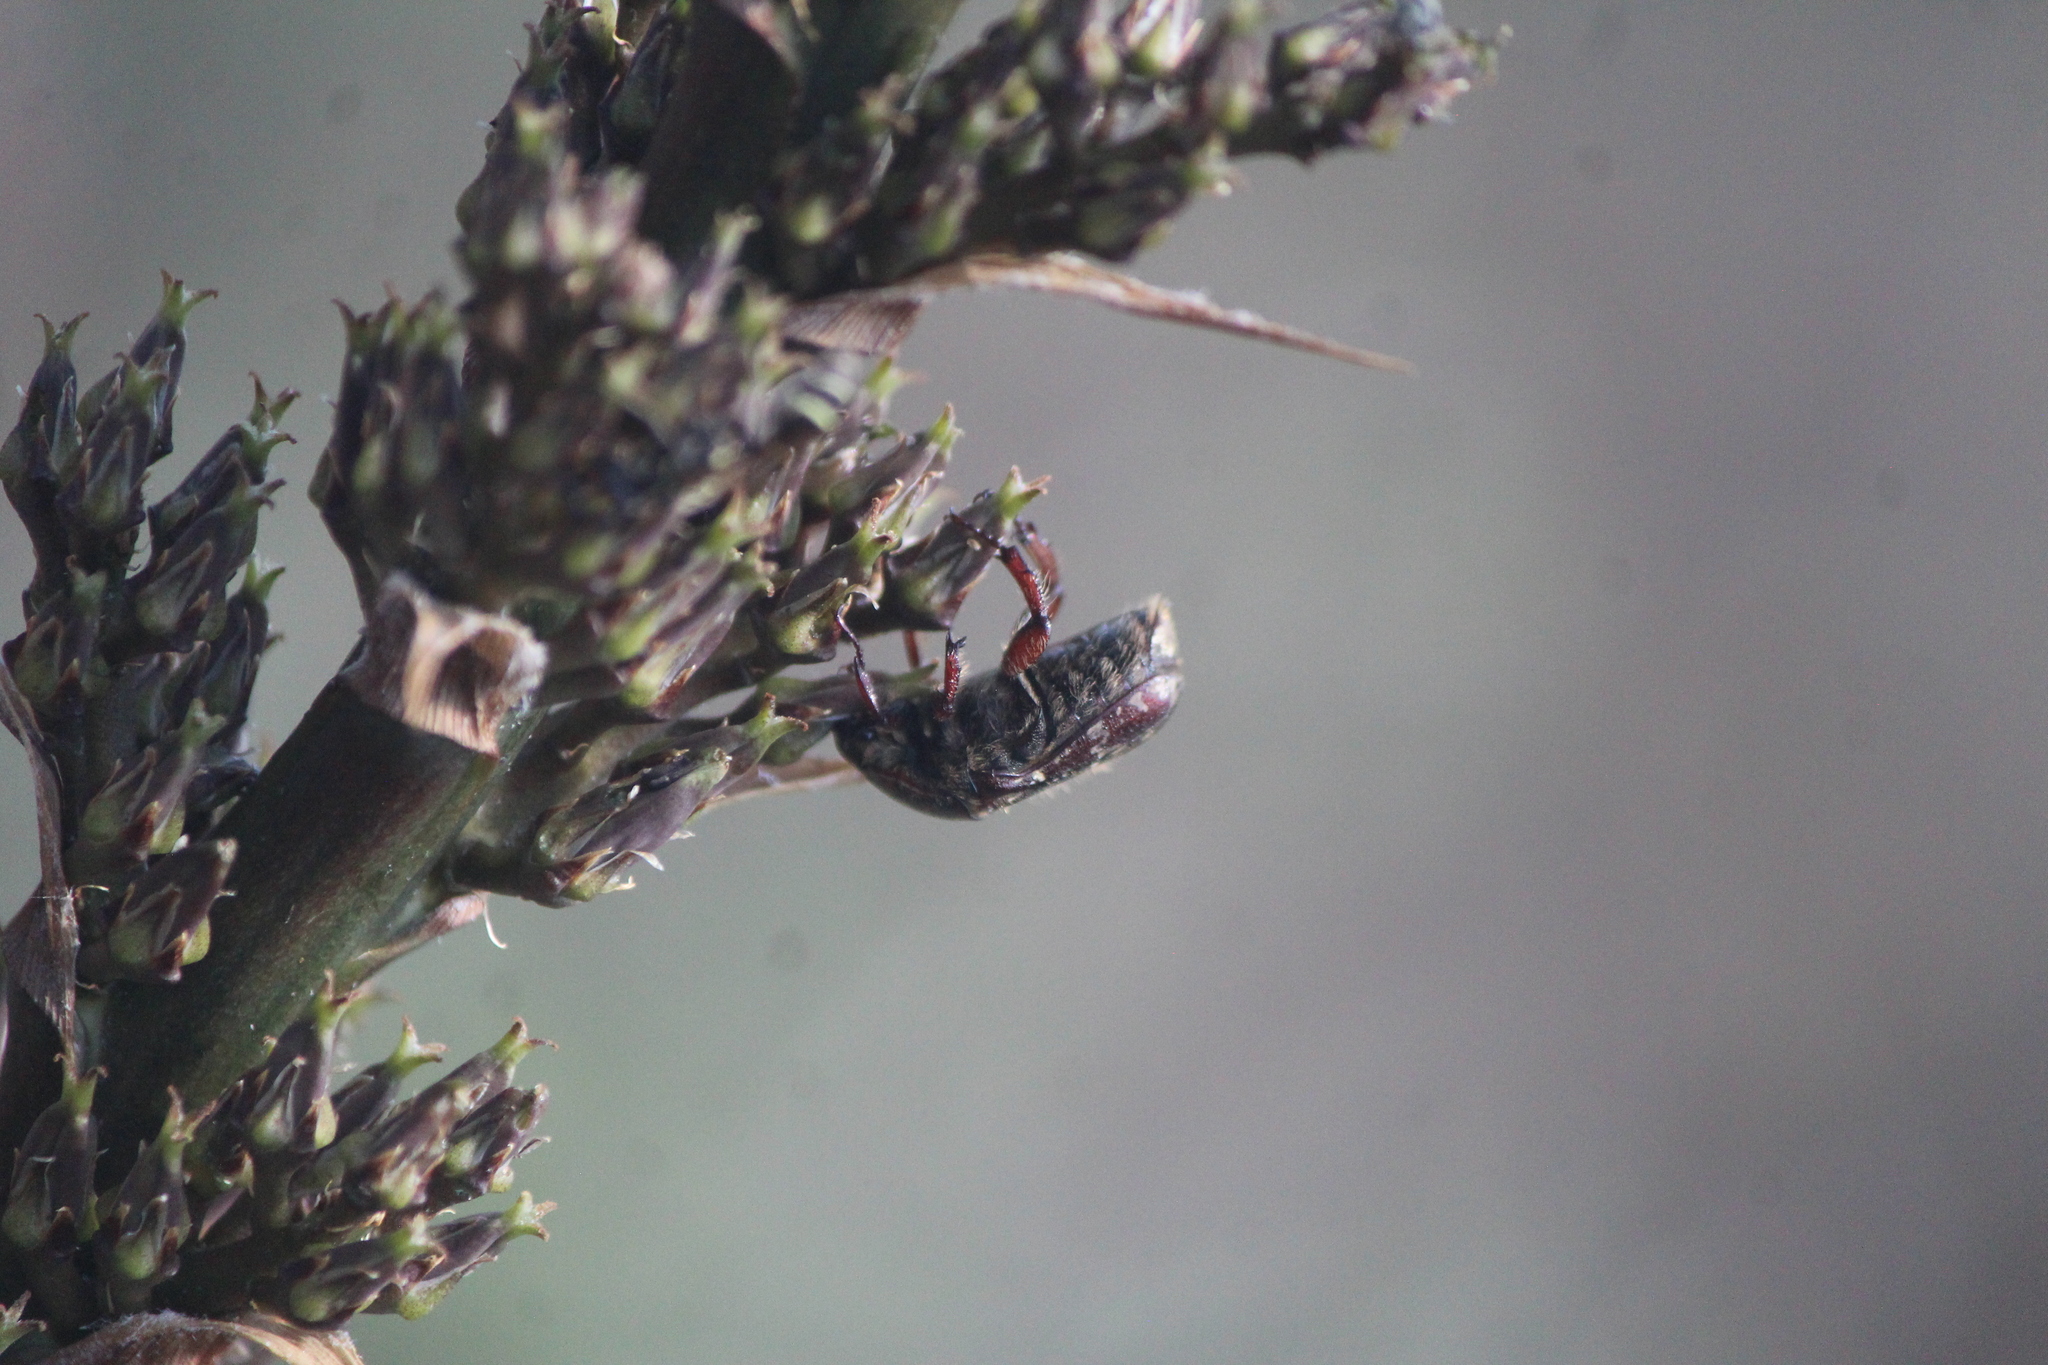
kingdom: Animalia
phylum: Arthropoda
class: Insecta
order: Coleoptera
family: Scarabaeidae
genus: Euphoria
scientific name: Euphoria leucographa
